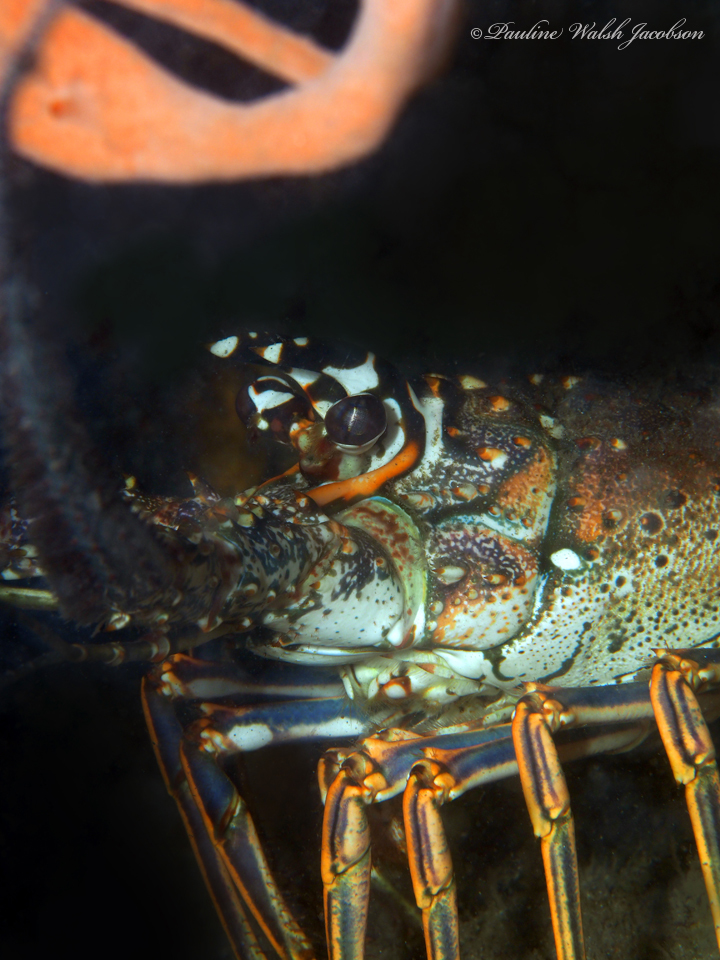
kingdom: Animalia
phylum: Arthropoda
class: Malacostraca
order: Decapoda
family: Palinuridae
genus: Panulirus
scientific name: Panulirus argus
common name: Caribbean spiny lobster
